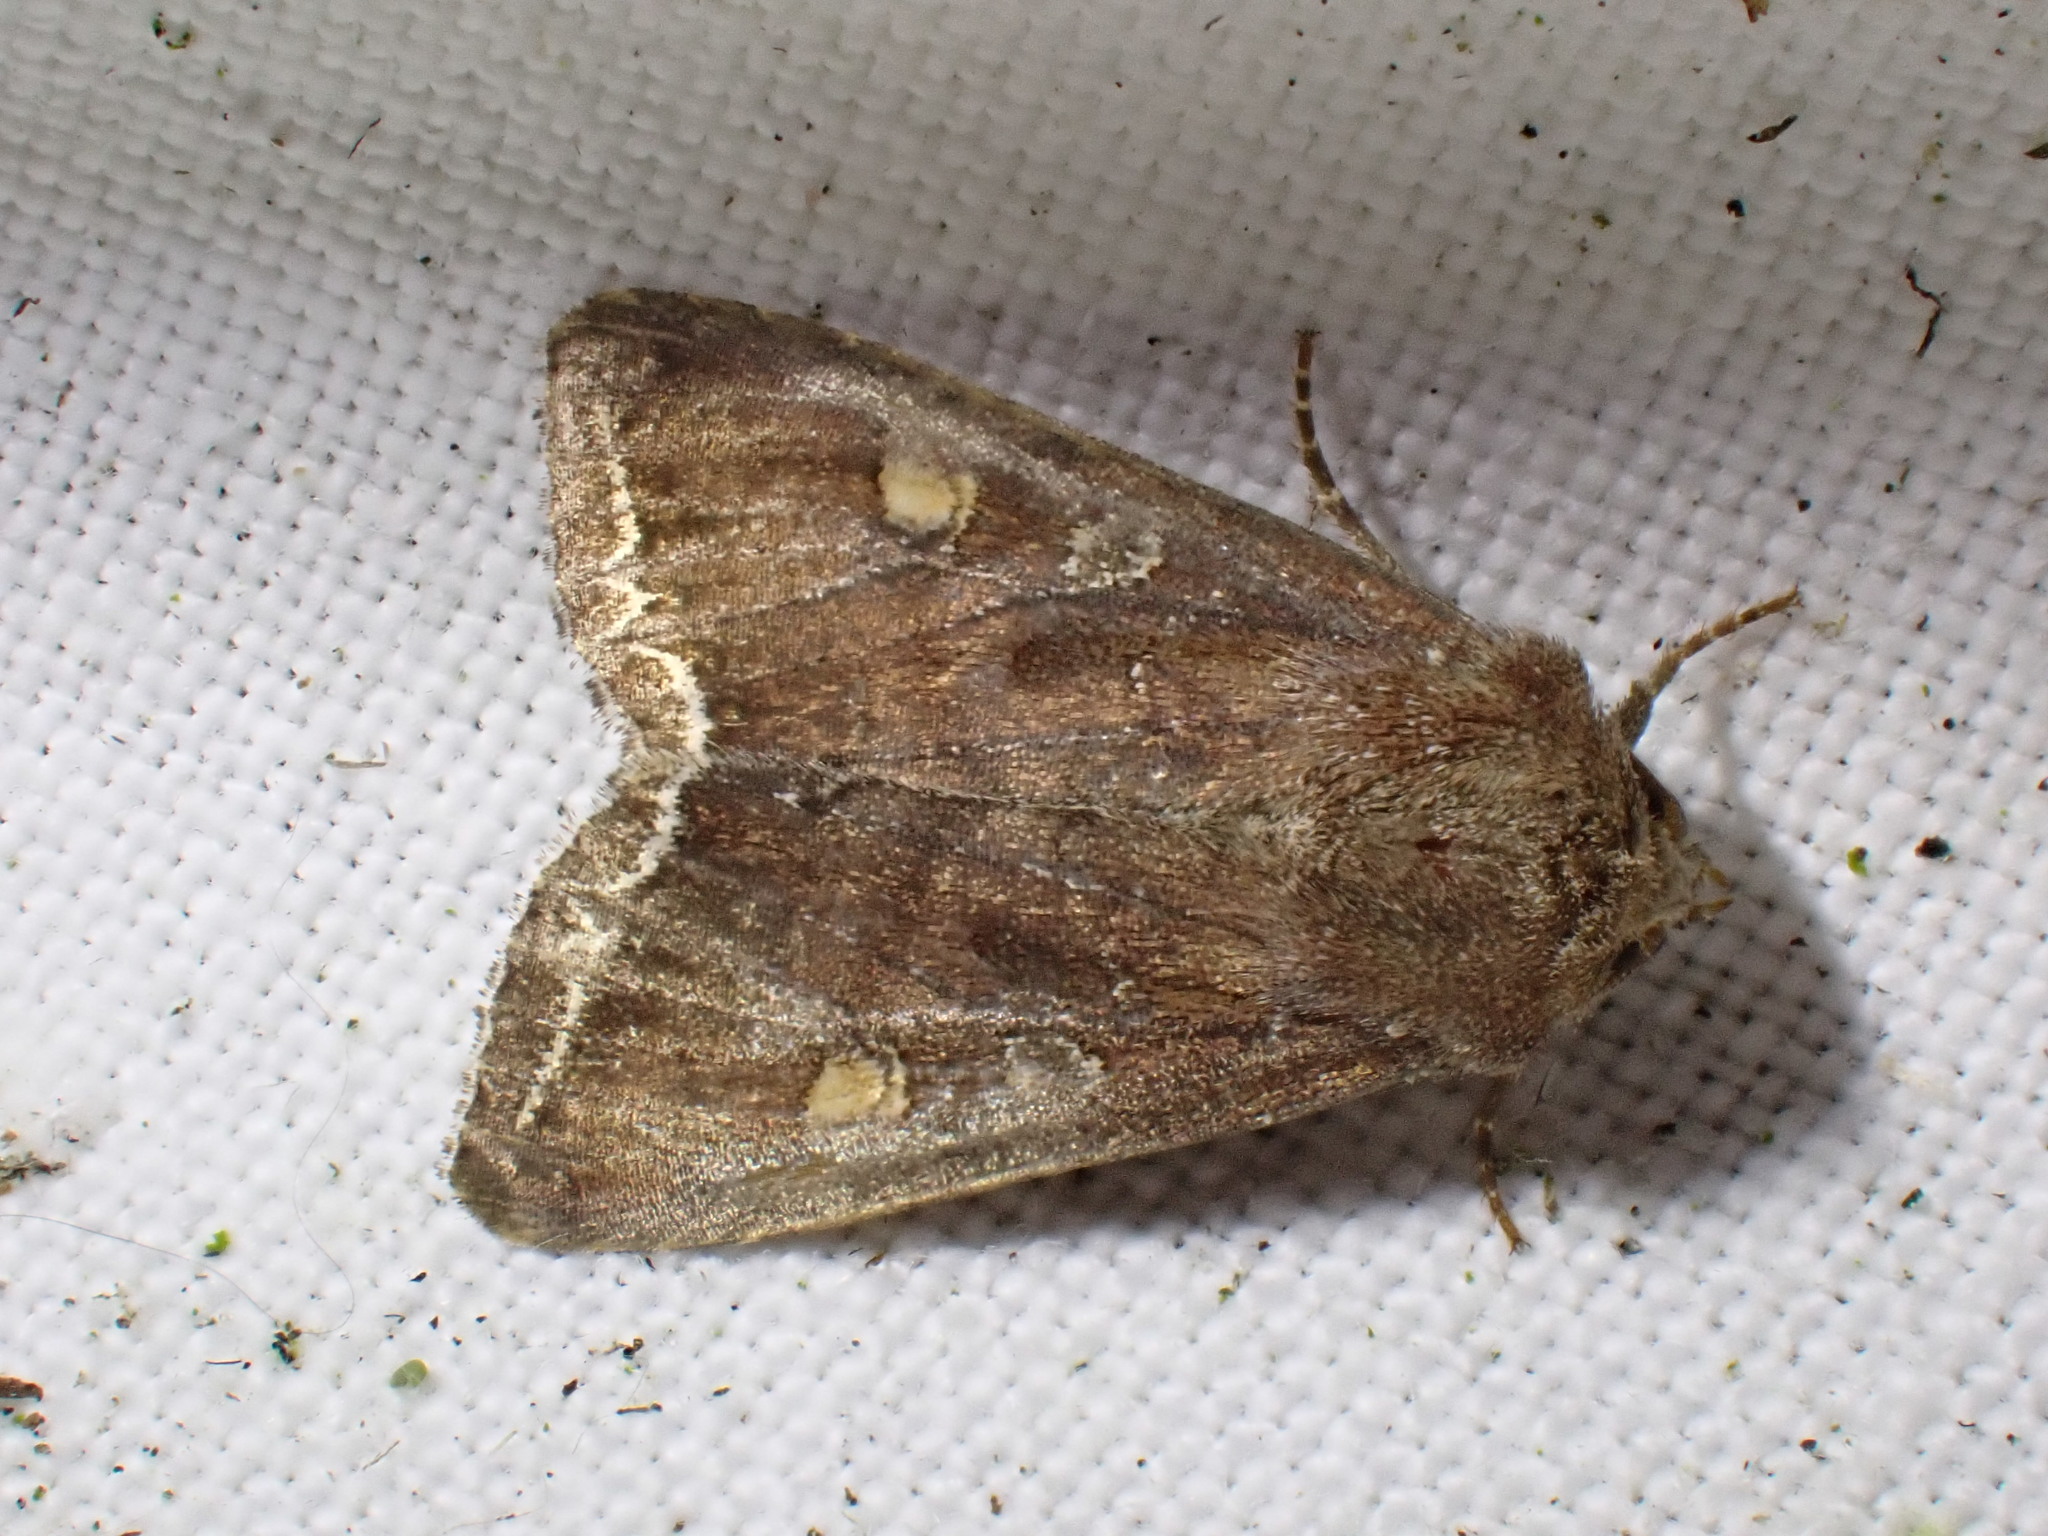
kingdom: Animalia
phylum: Arthropoda
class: Insecta
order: Lepidoptera
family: Noctuidae
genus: Lacanobia
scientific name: Lacanobia oleracea
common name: Bright-line brown-eye
